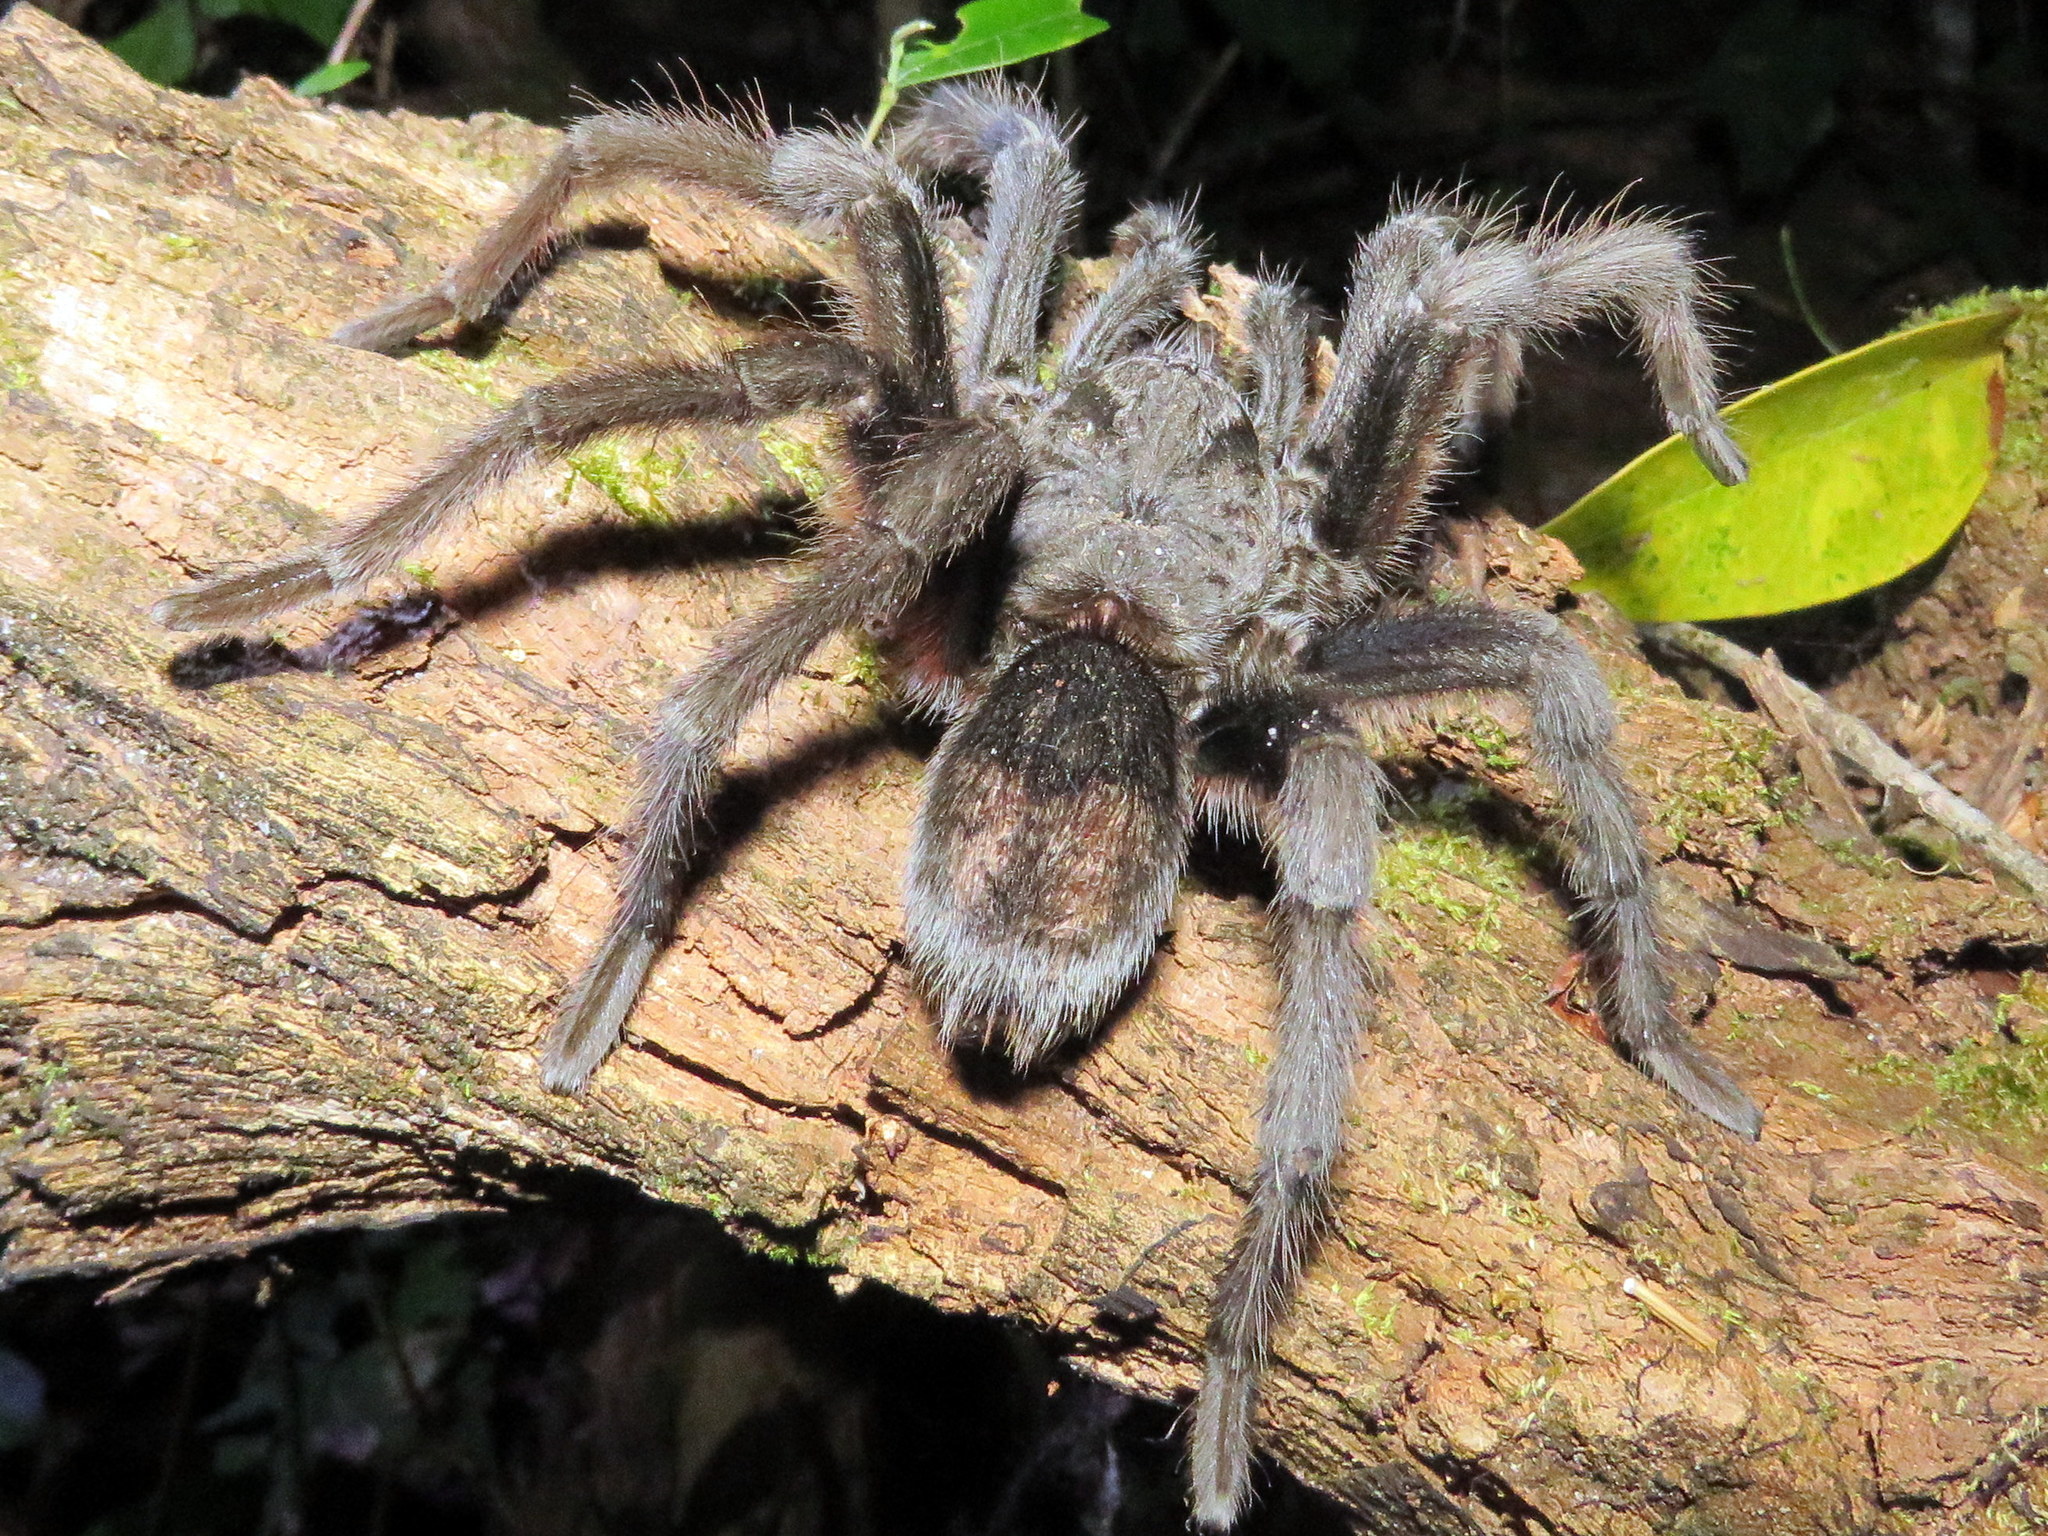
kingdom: Animalia
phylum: Arthropoda
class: Arachnida
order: Araneae
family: Theraphosidae
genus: Grammostola
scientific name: Grammostola quirogai
